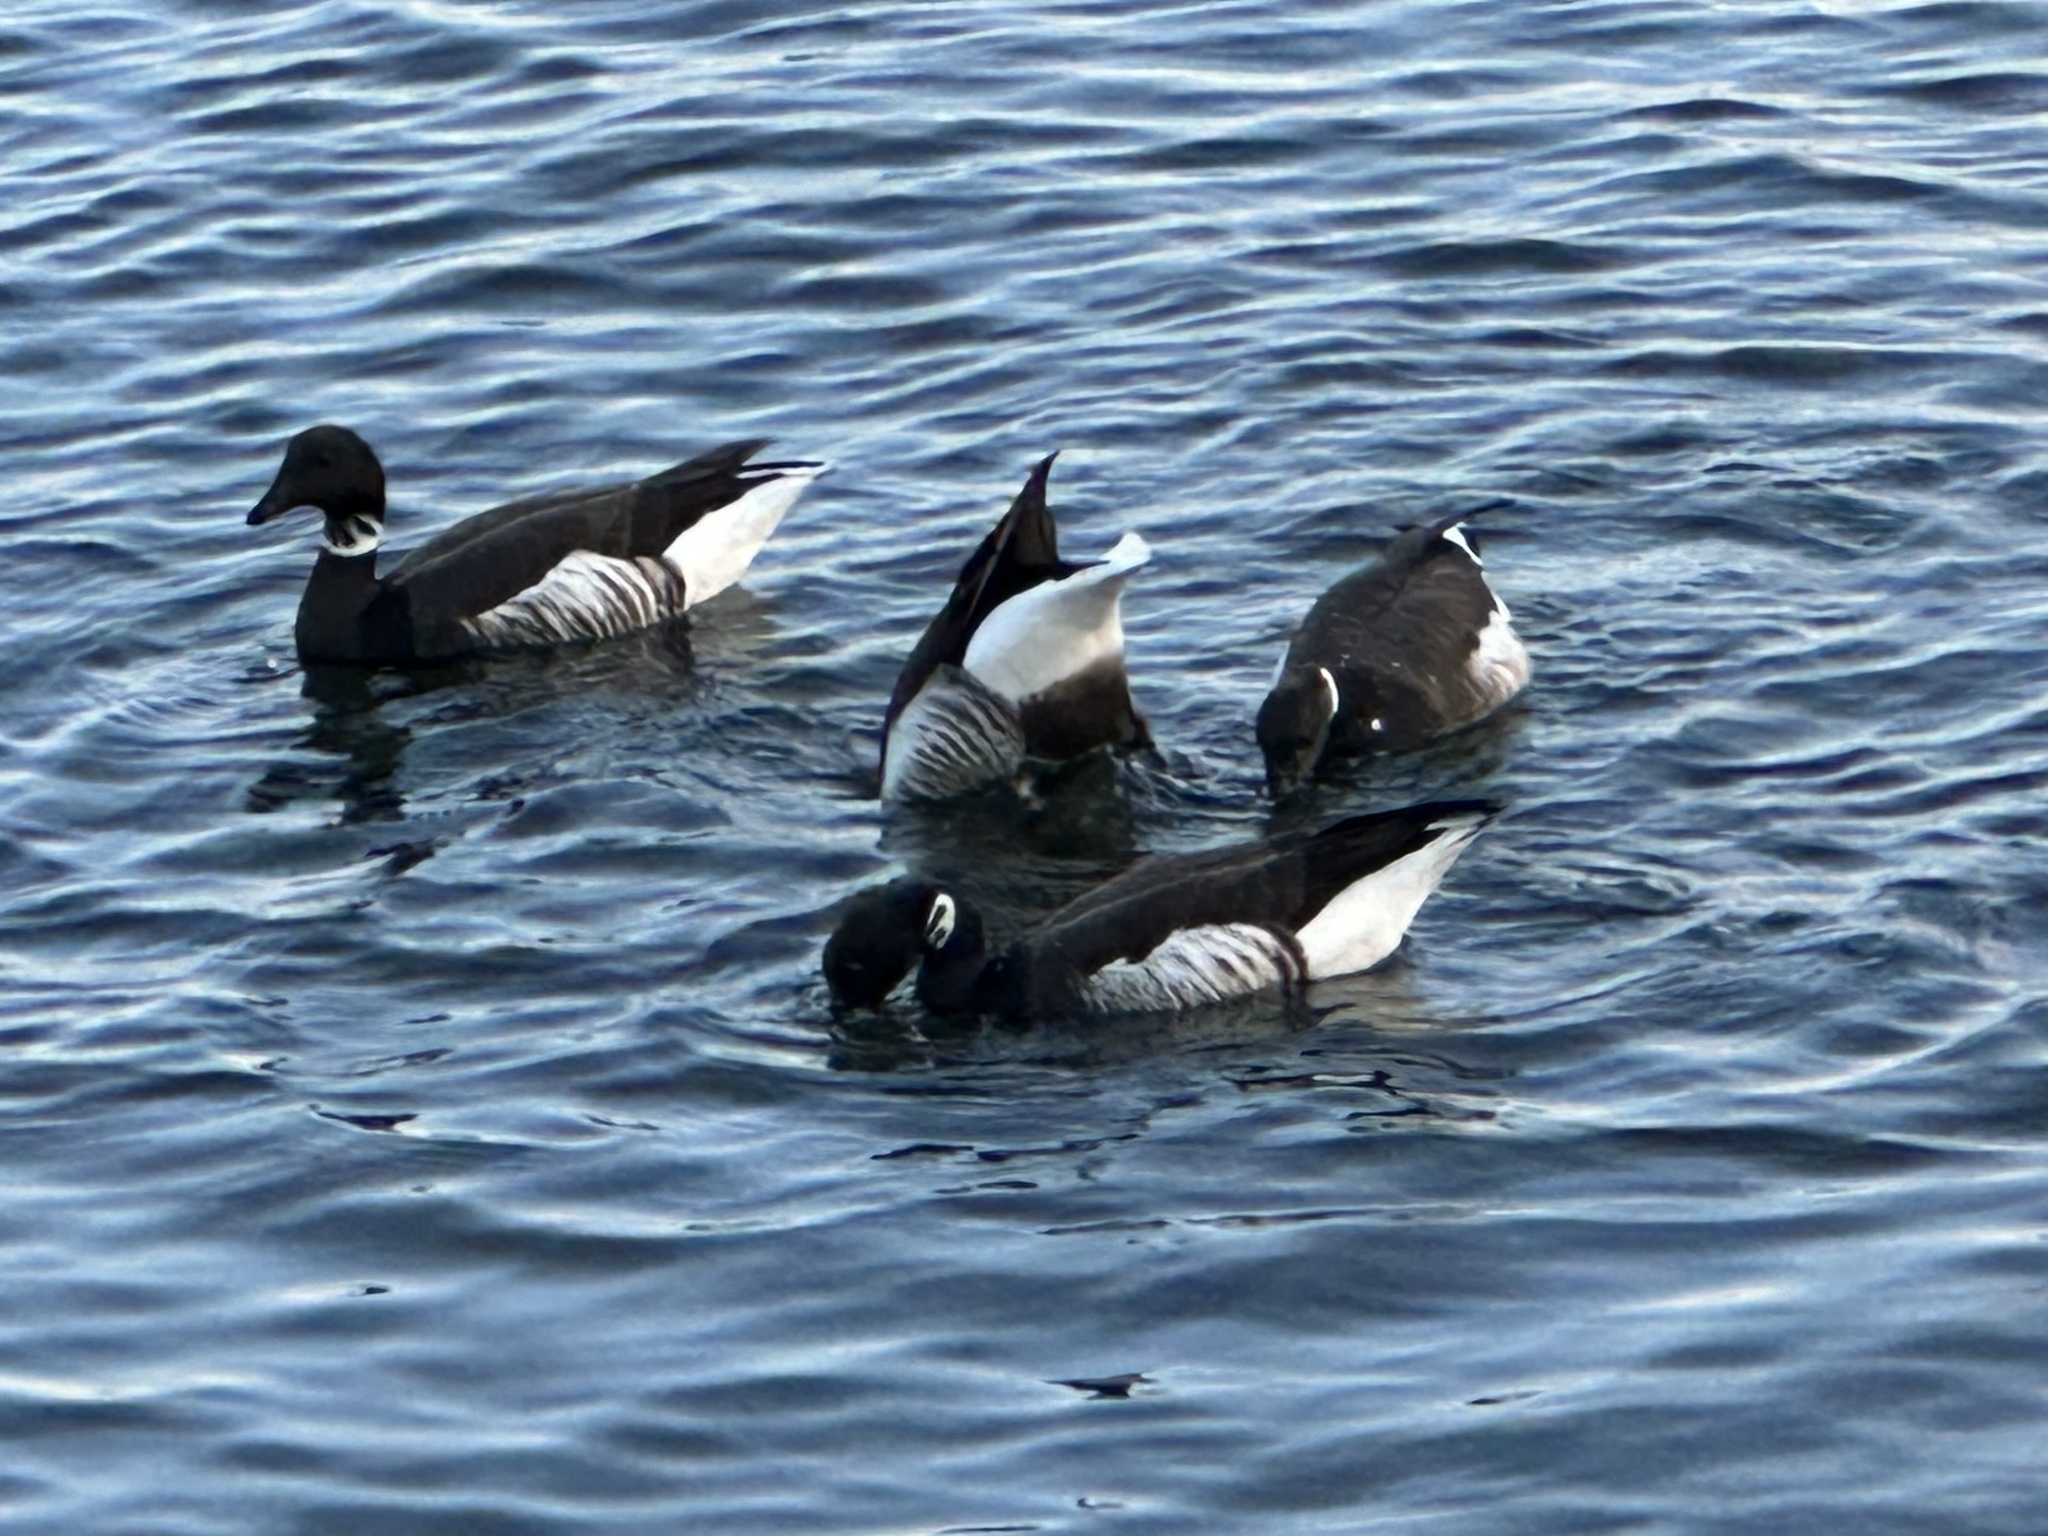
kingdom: Animalia
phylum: Chordata
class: Aves
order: Anseriformes
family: Anatidae
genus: Branta
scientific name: Branta bernicla
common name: Brant goose
